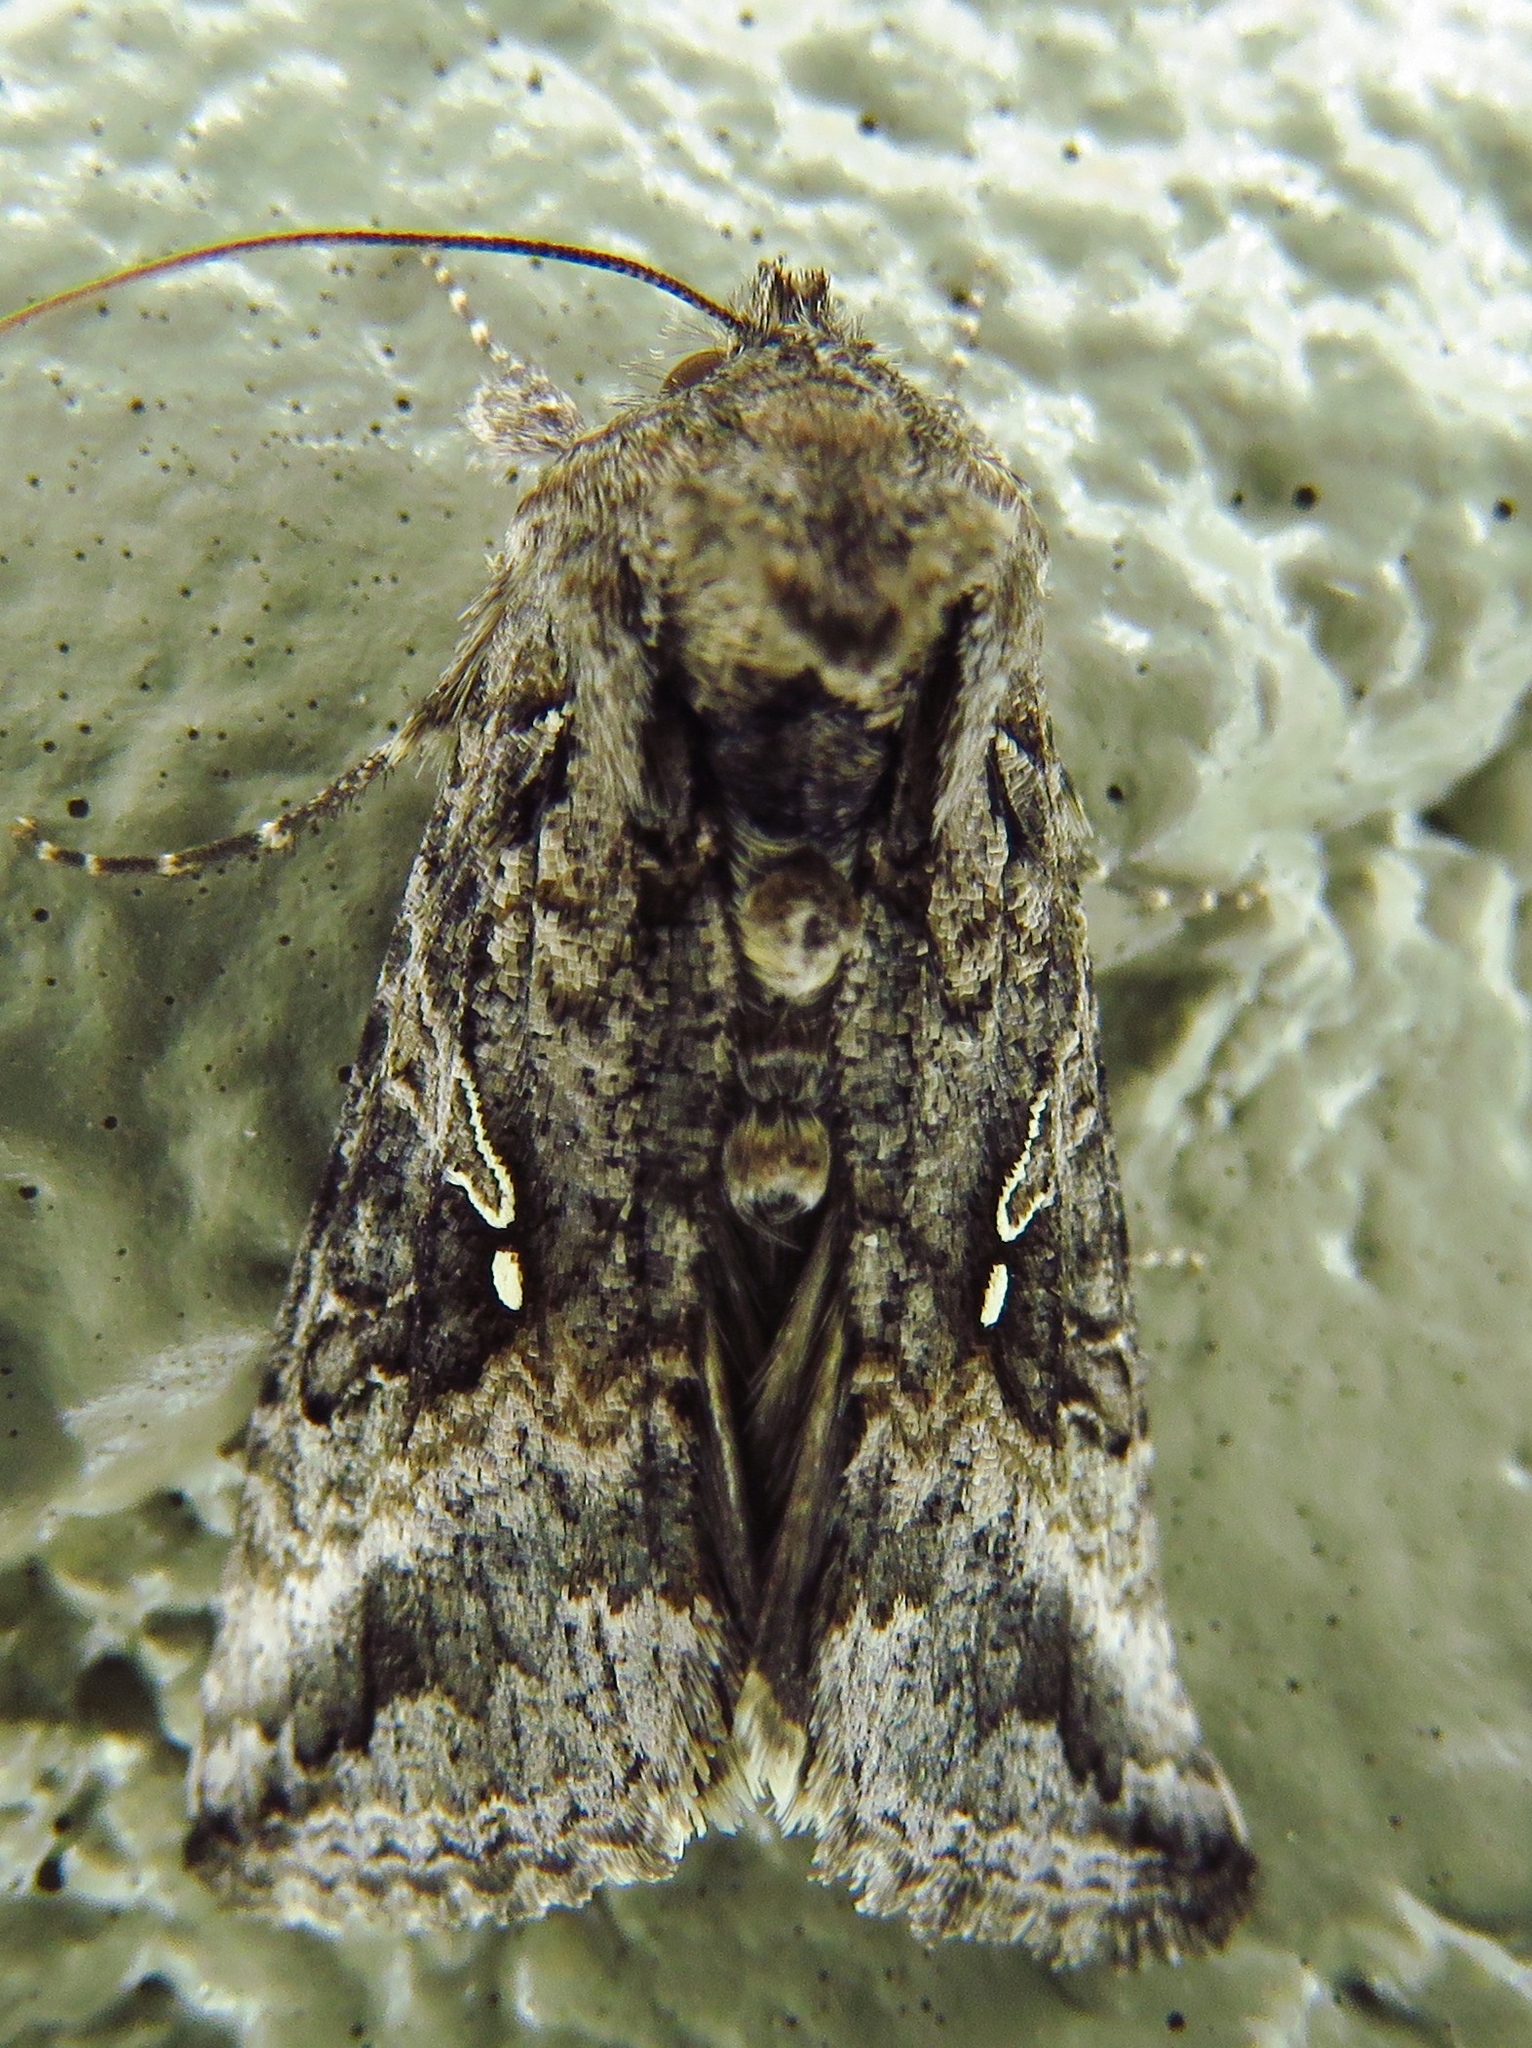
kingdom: Animalia
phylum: Arthropoda
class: Insecta
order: Lepidoptera
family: Noctuidae
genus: Rachiplusia
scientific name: Rachiplusia ou
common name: Gray looper moth
